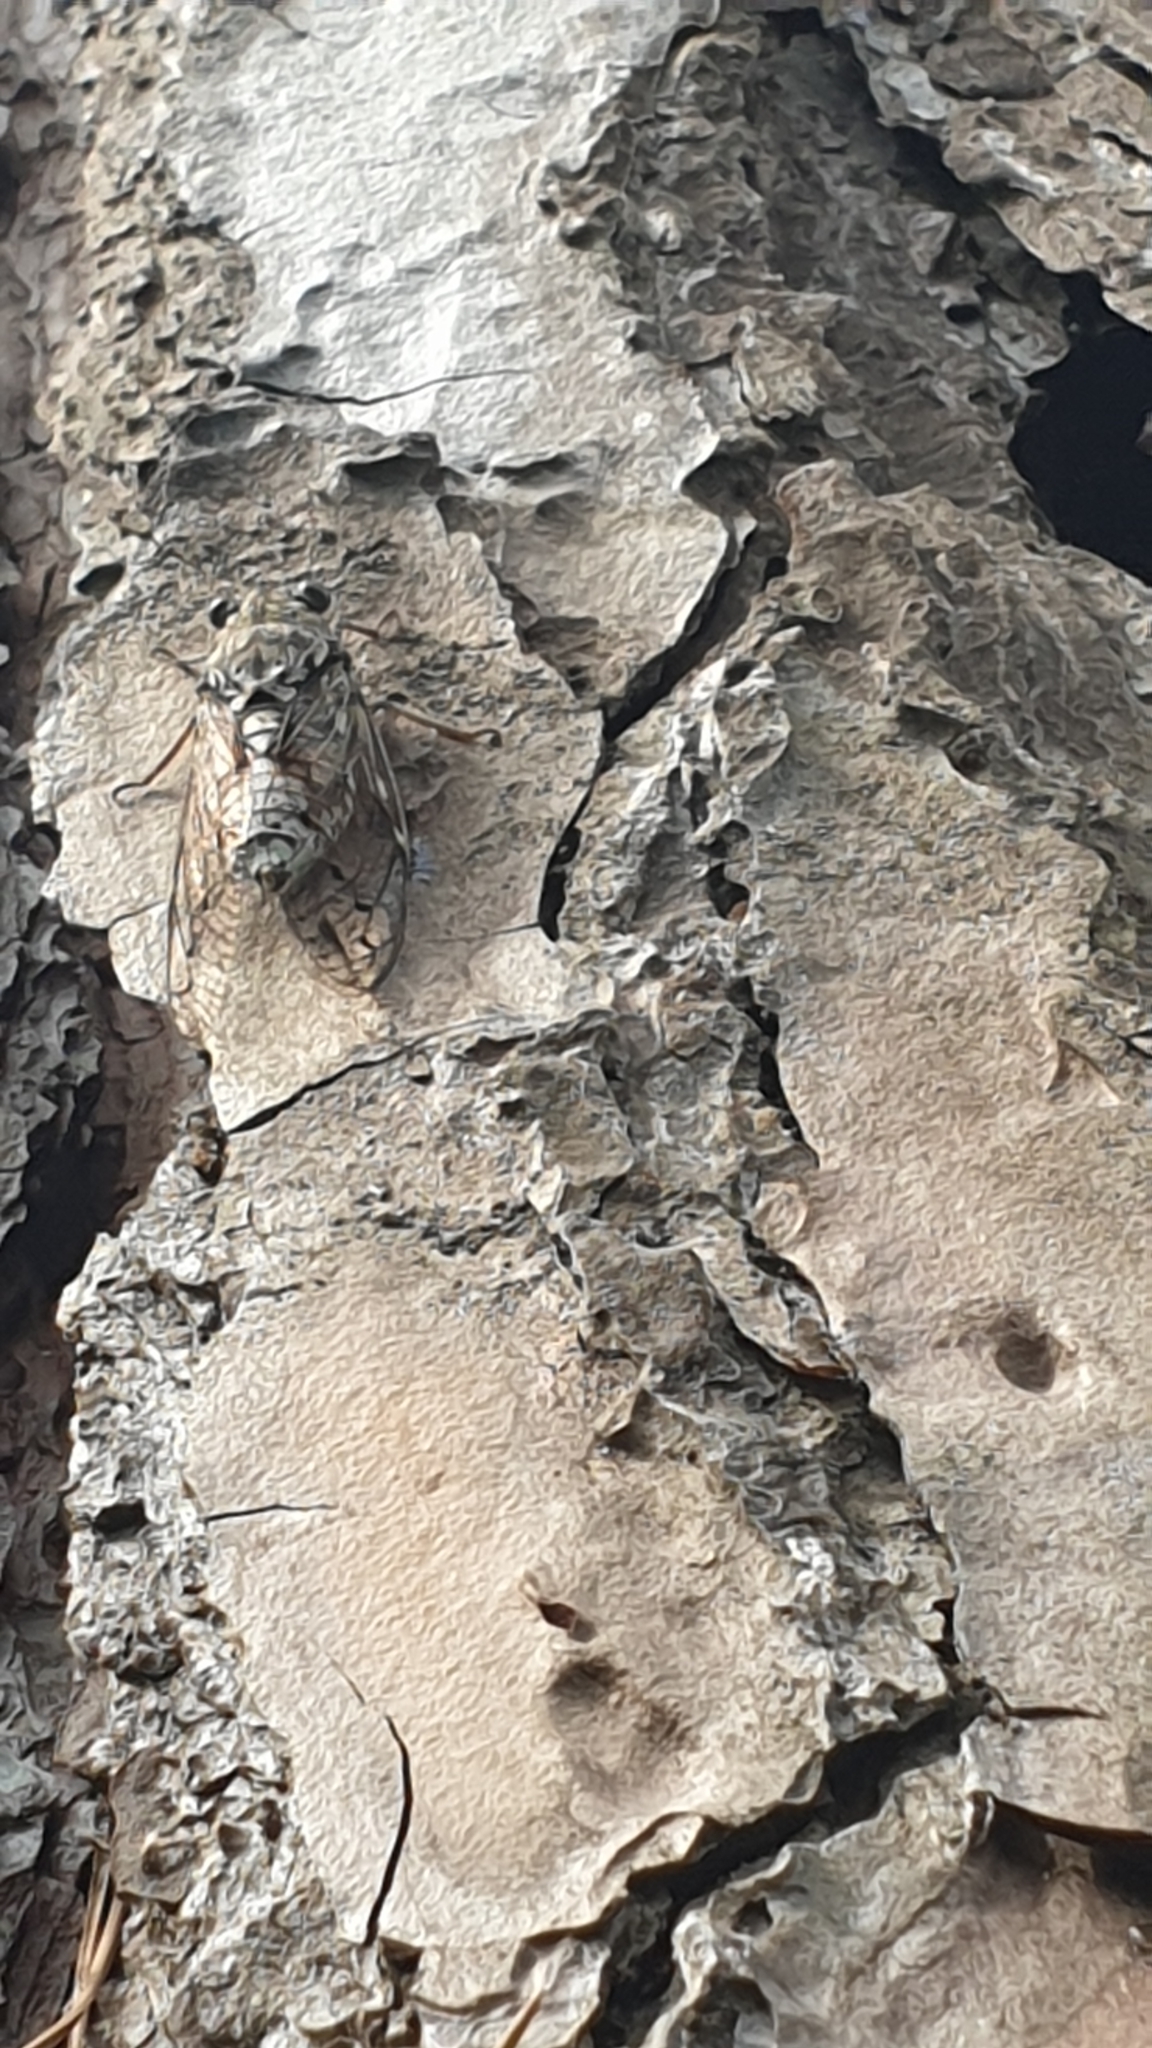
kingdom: Animalia
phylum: Arthropoda
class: Insecta
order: Hemiptera
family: Cicadidae
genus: Cicada
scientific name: Cicada orni
